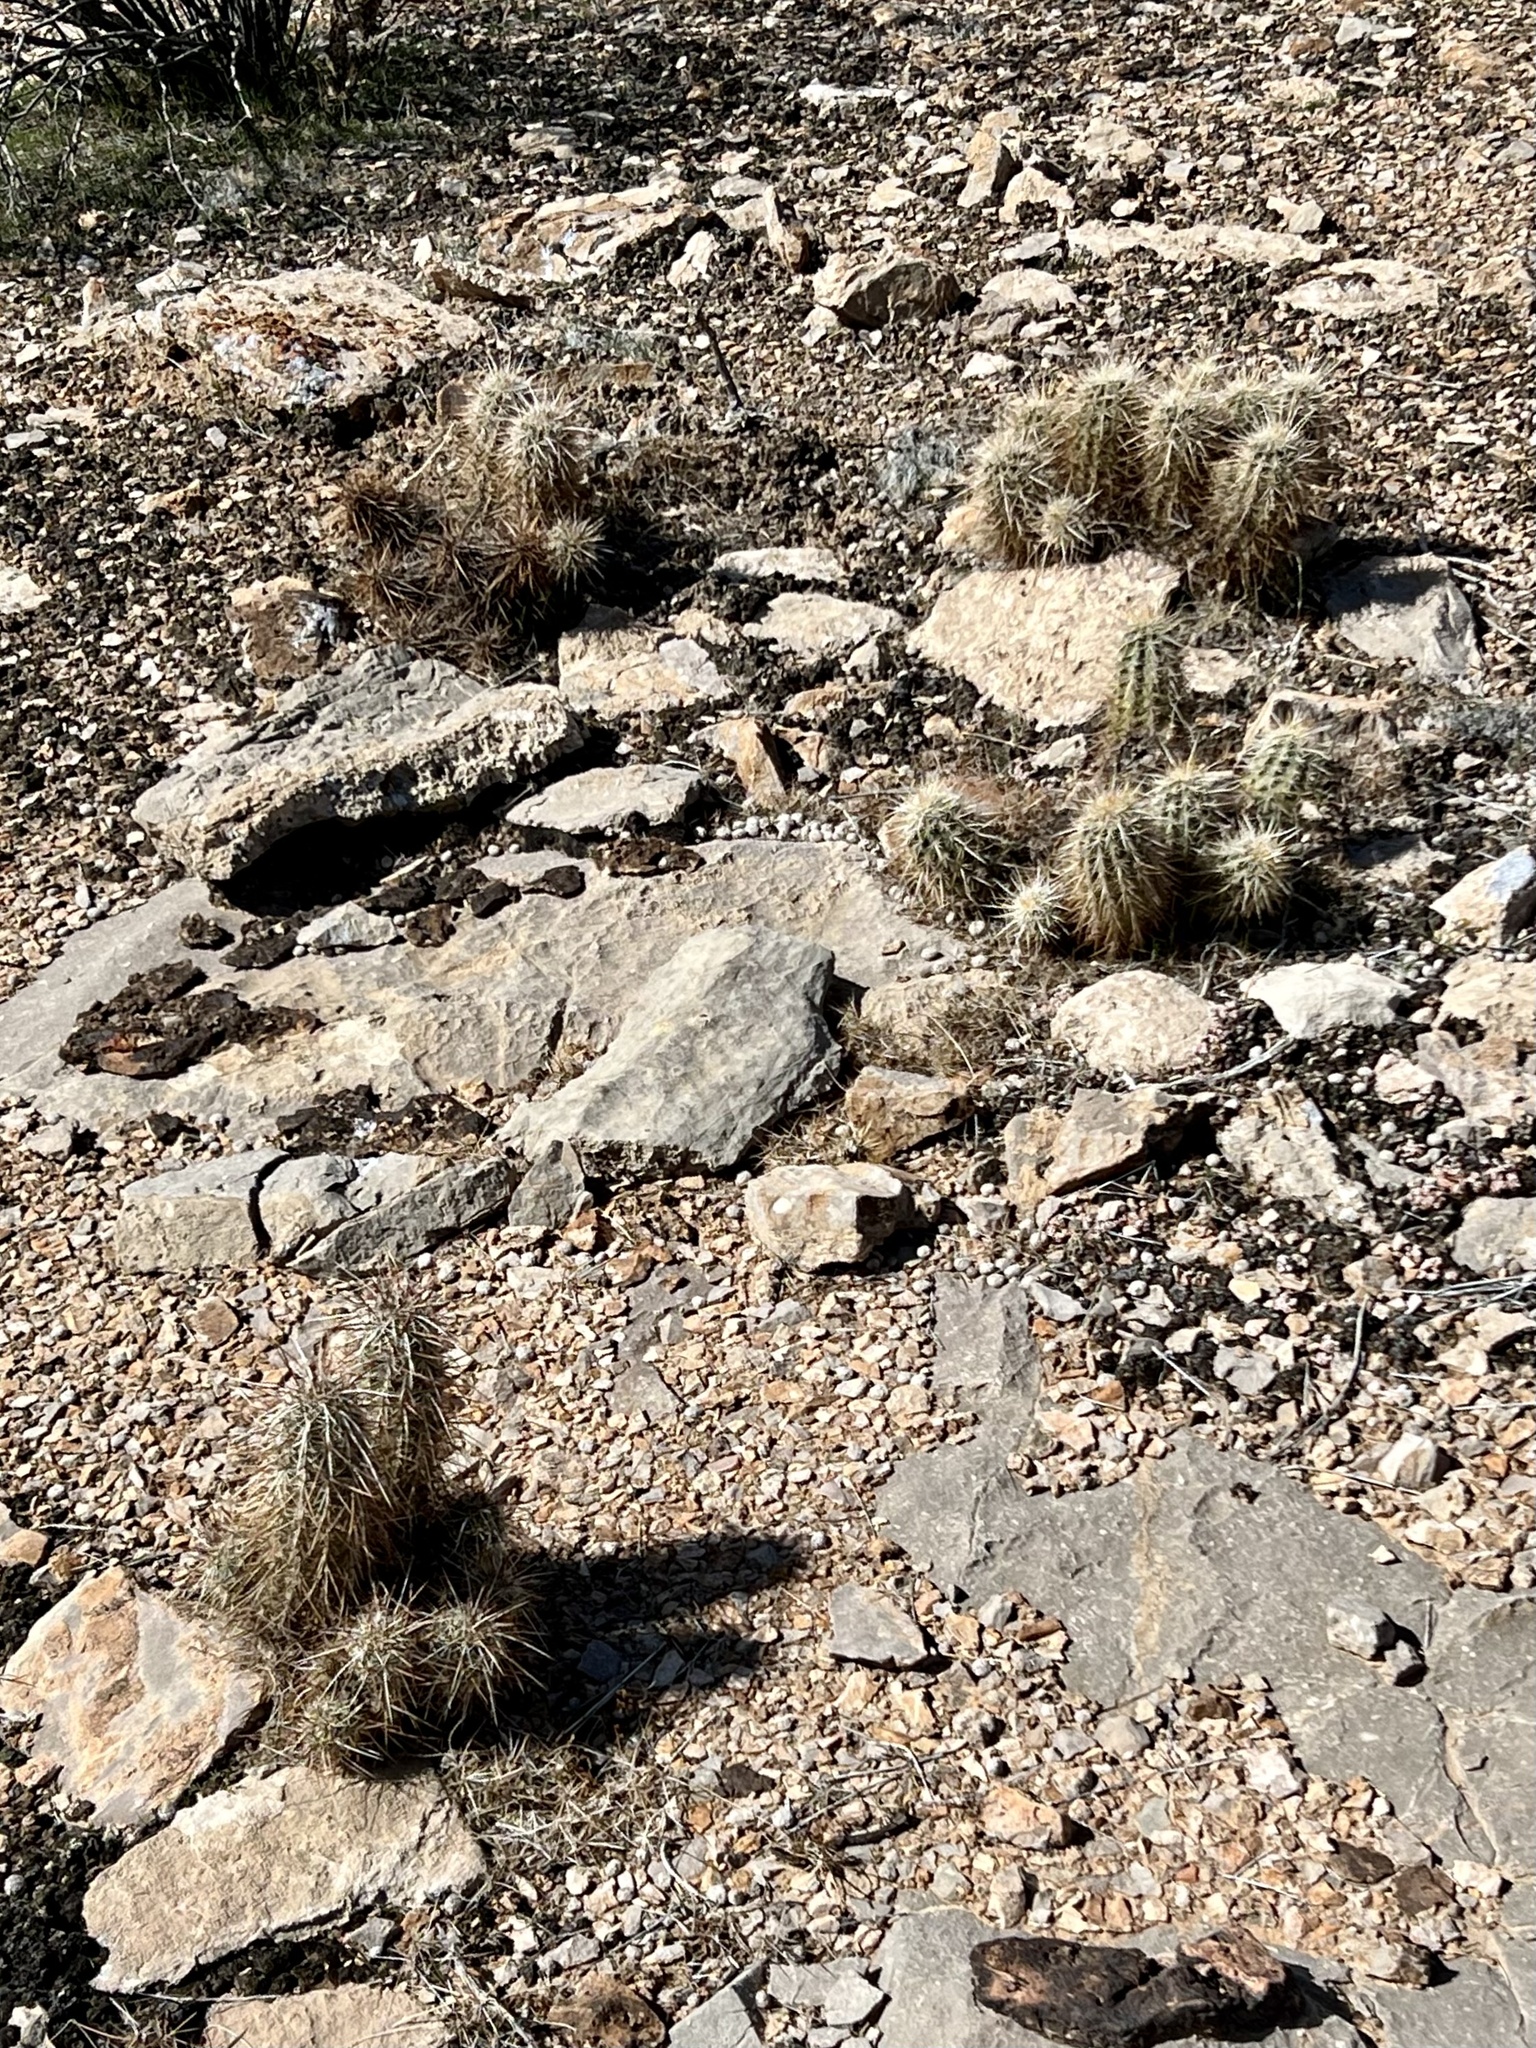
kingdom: Plantae
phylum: Tracheophyta
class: Magnoliopsida
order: Caryophyllales
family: Cactaceae
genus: Echinocereus
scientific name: Echinocereus engelmannii
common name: Engelmann's hedgehog cactus
